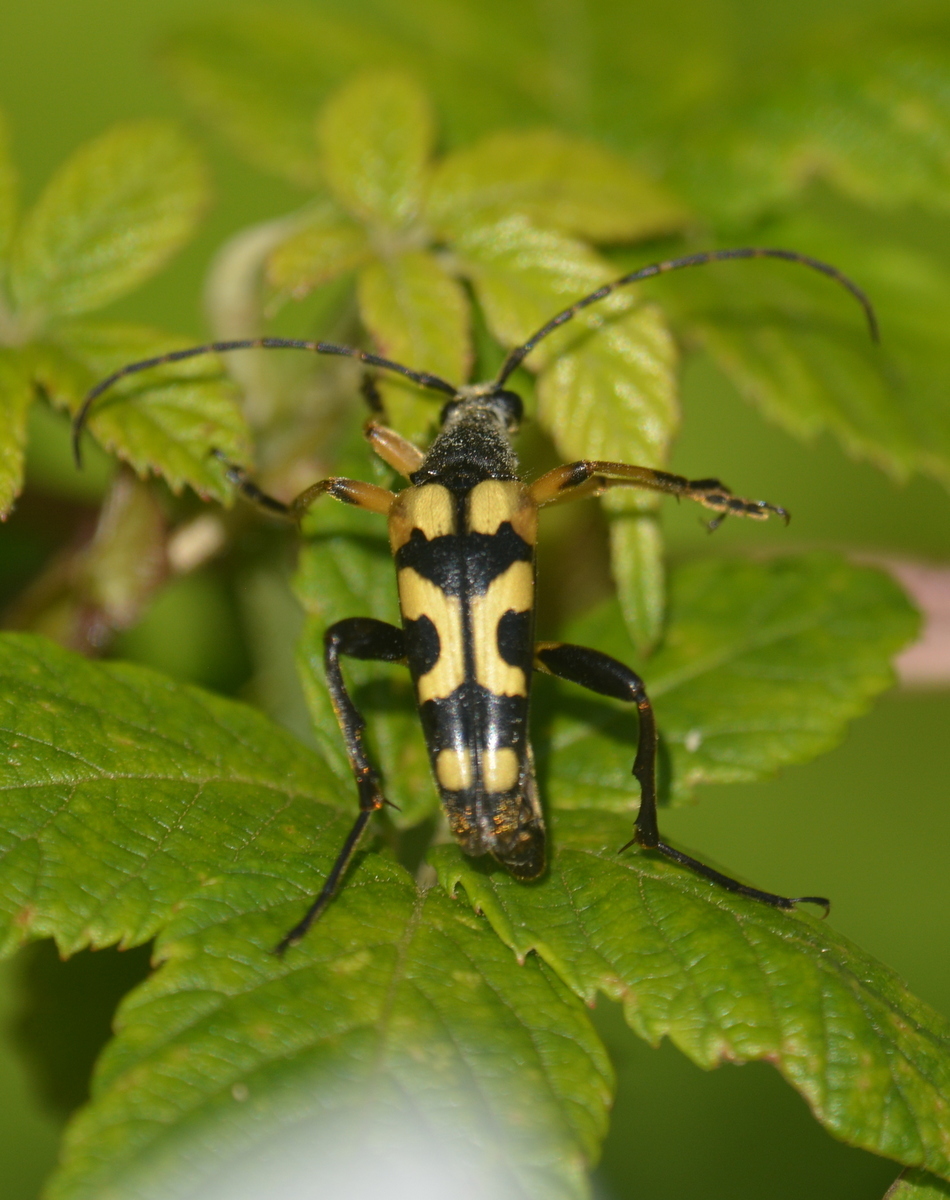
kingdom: Animalia
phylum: Arthropoda
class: Insecta
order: Coleoptera
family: Cerambycidae
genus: Rutpela
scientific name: Rutpela maculata
